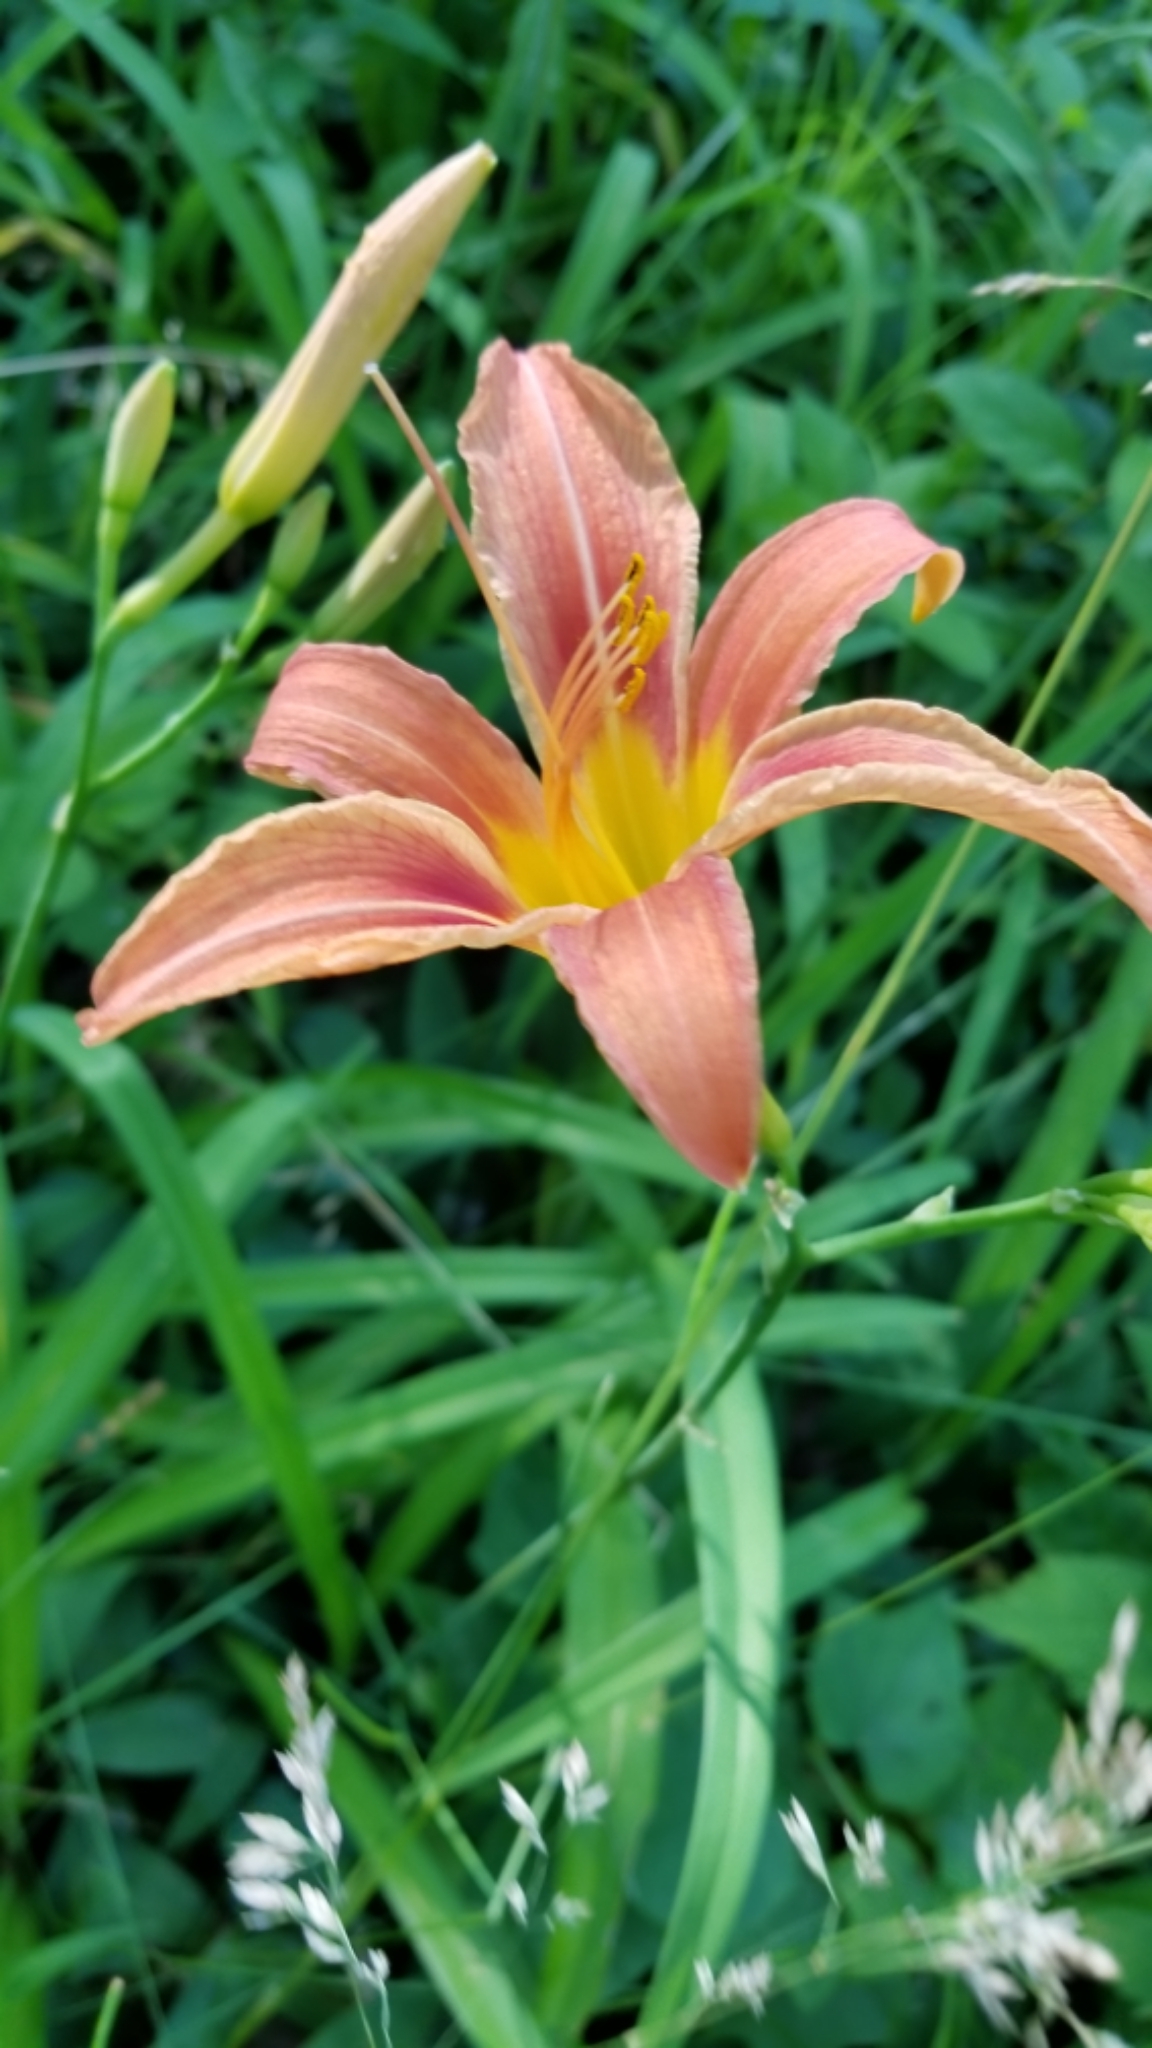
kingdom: Plantae
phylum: Tracheophyta
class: Liliopsida
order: Asparagales
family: Asphodelaceae
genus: Hemerocallis
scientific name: Hemerocallis fulva
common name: Orange day-lily
